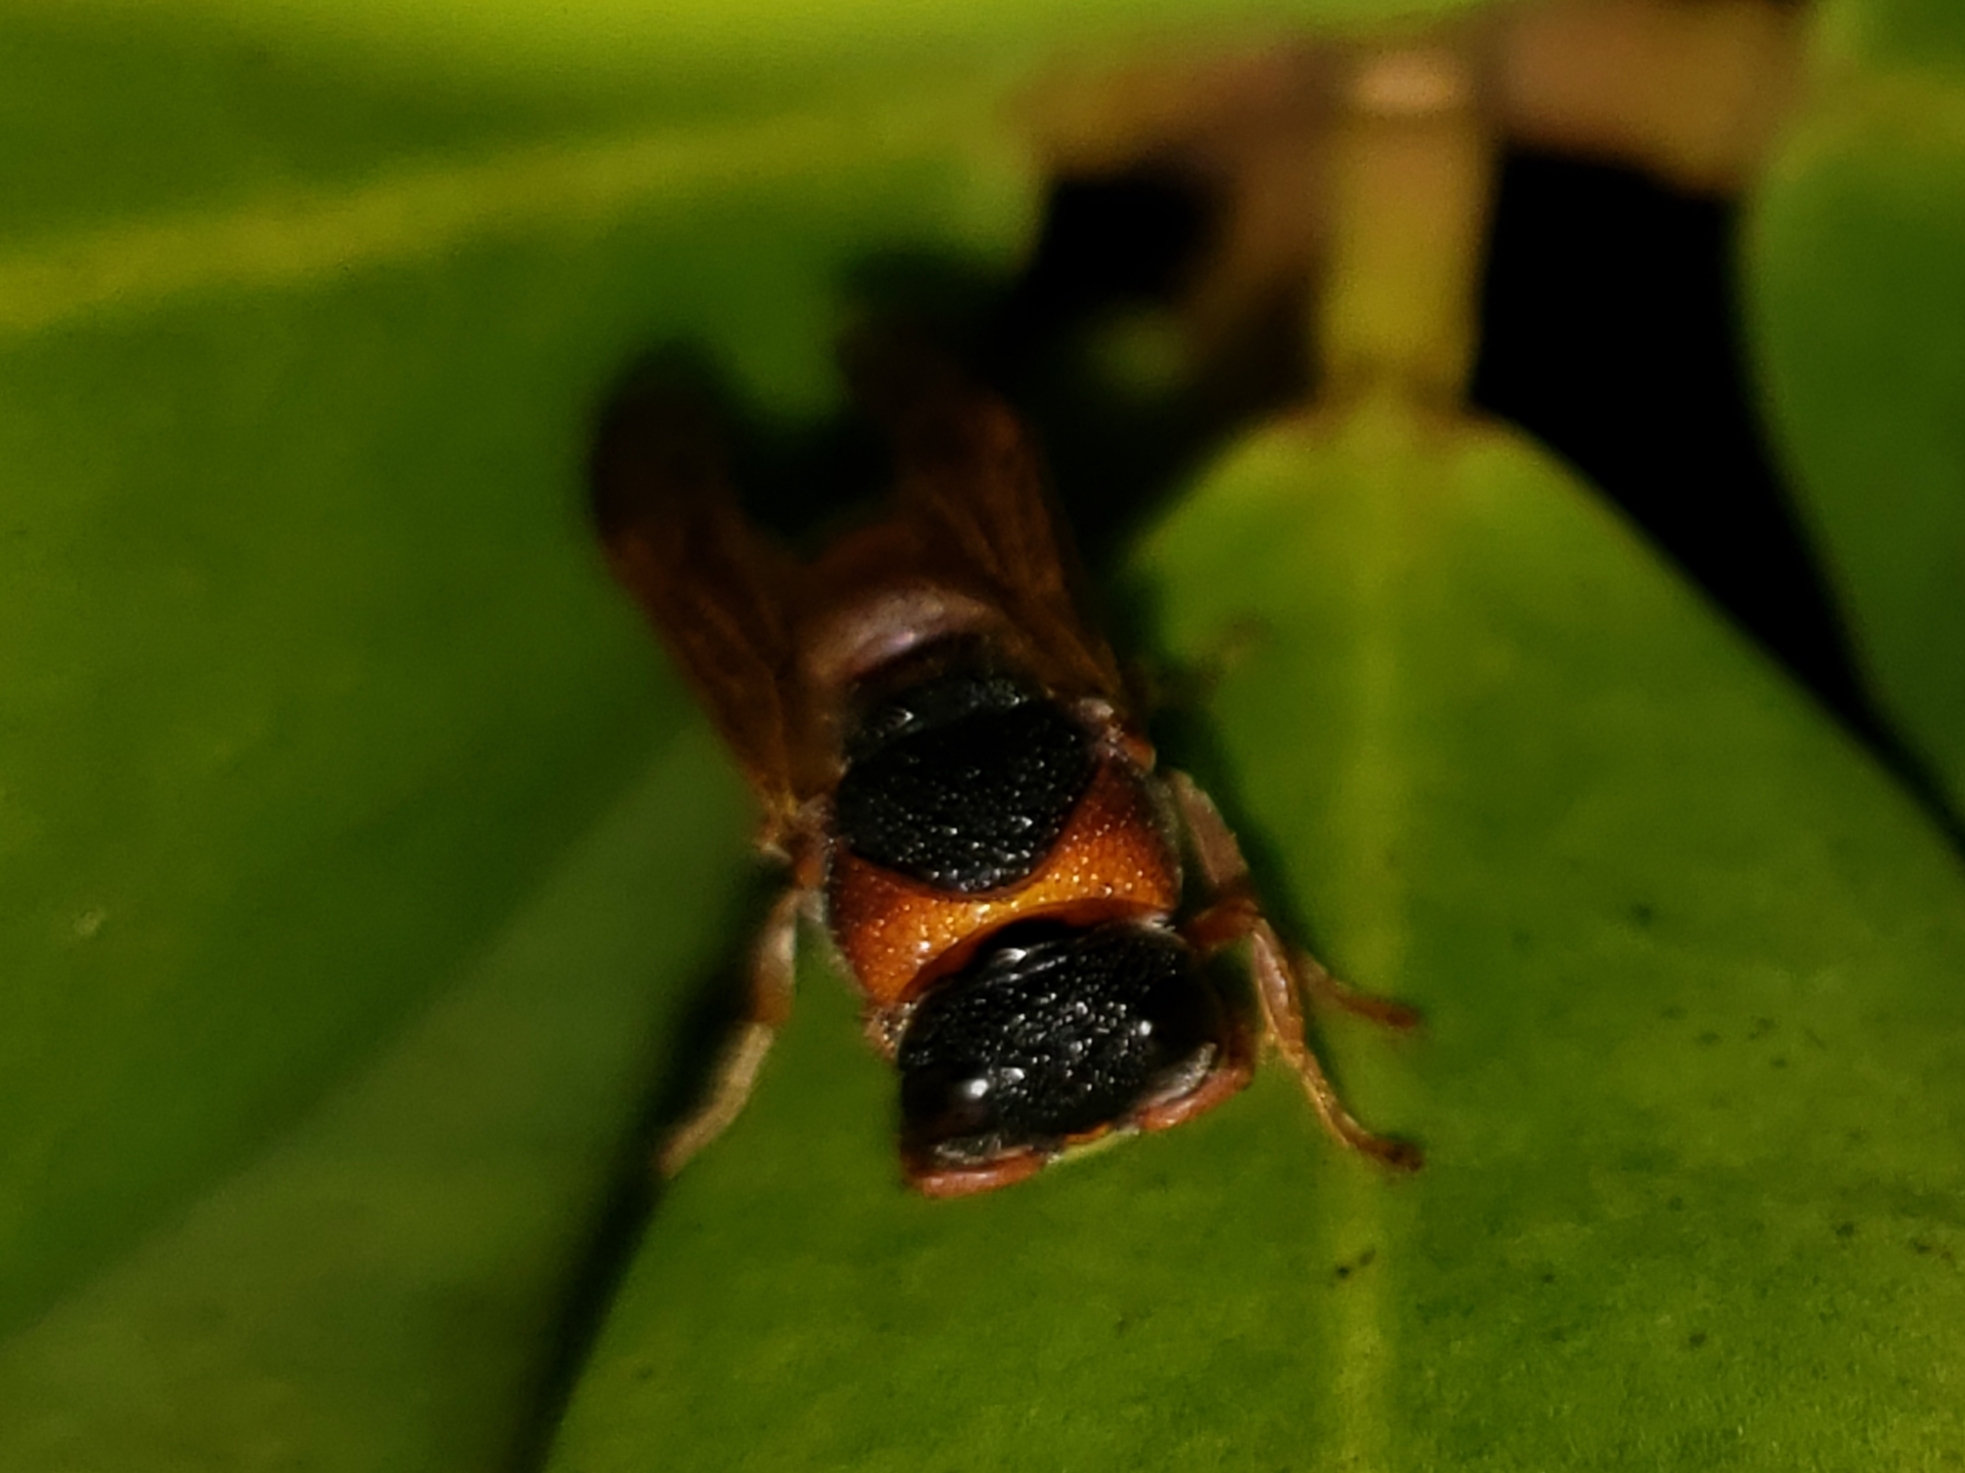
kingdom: Animalia
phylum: Arthropoda
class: Insecta
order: Hymenoptera
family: Eumenidae
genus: Pachodynerus
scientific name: Pachodynerus erynnis
